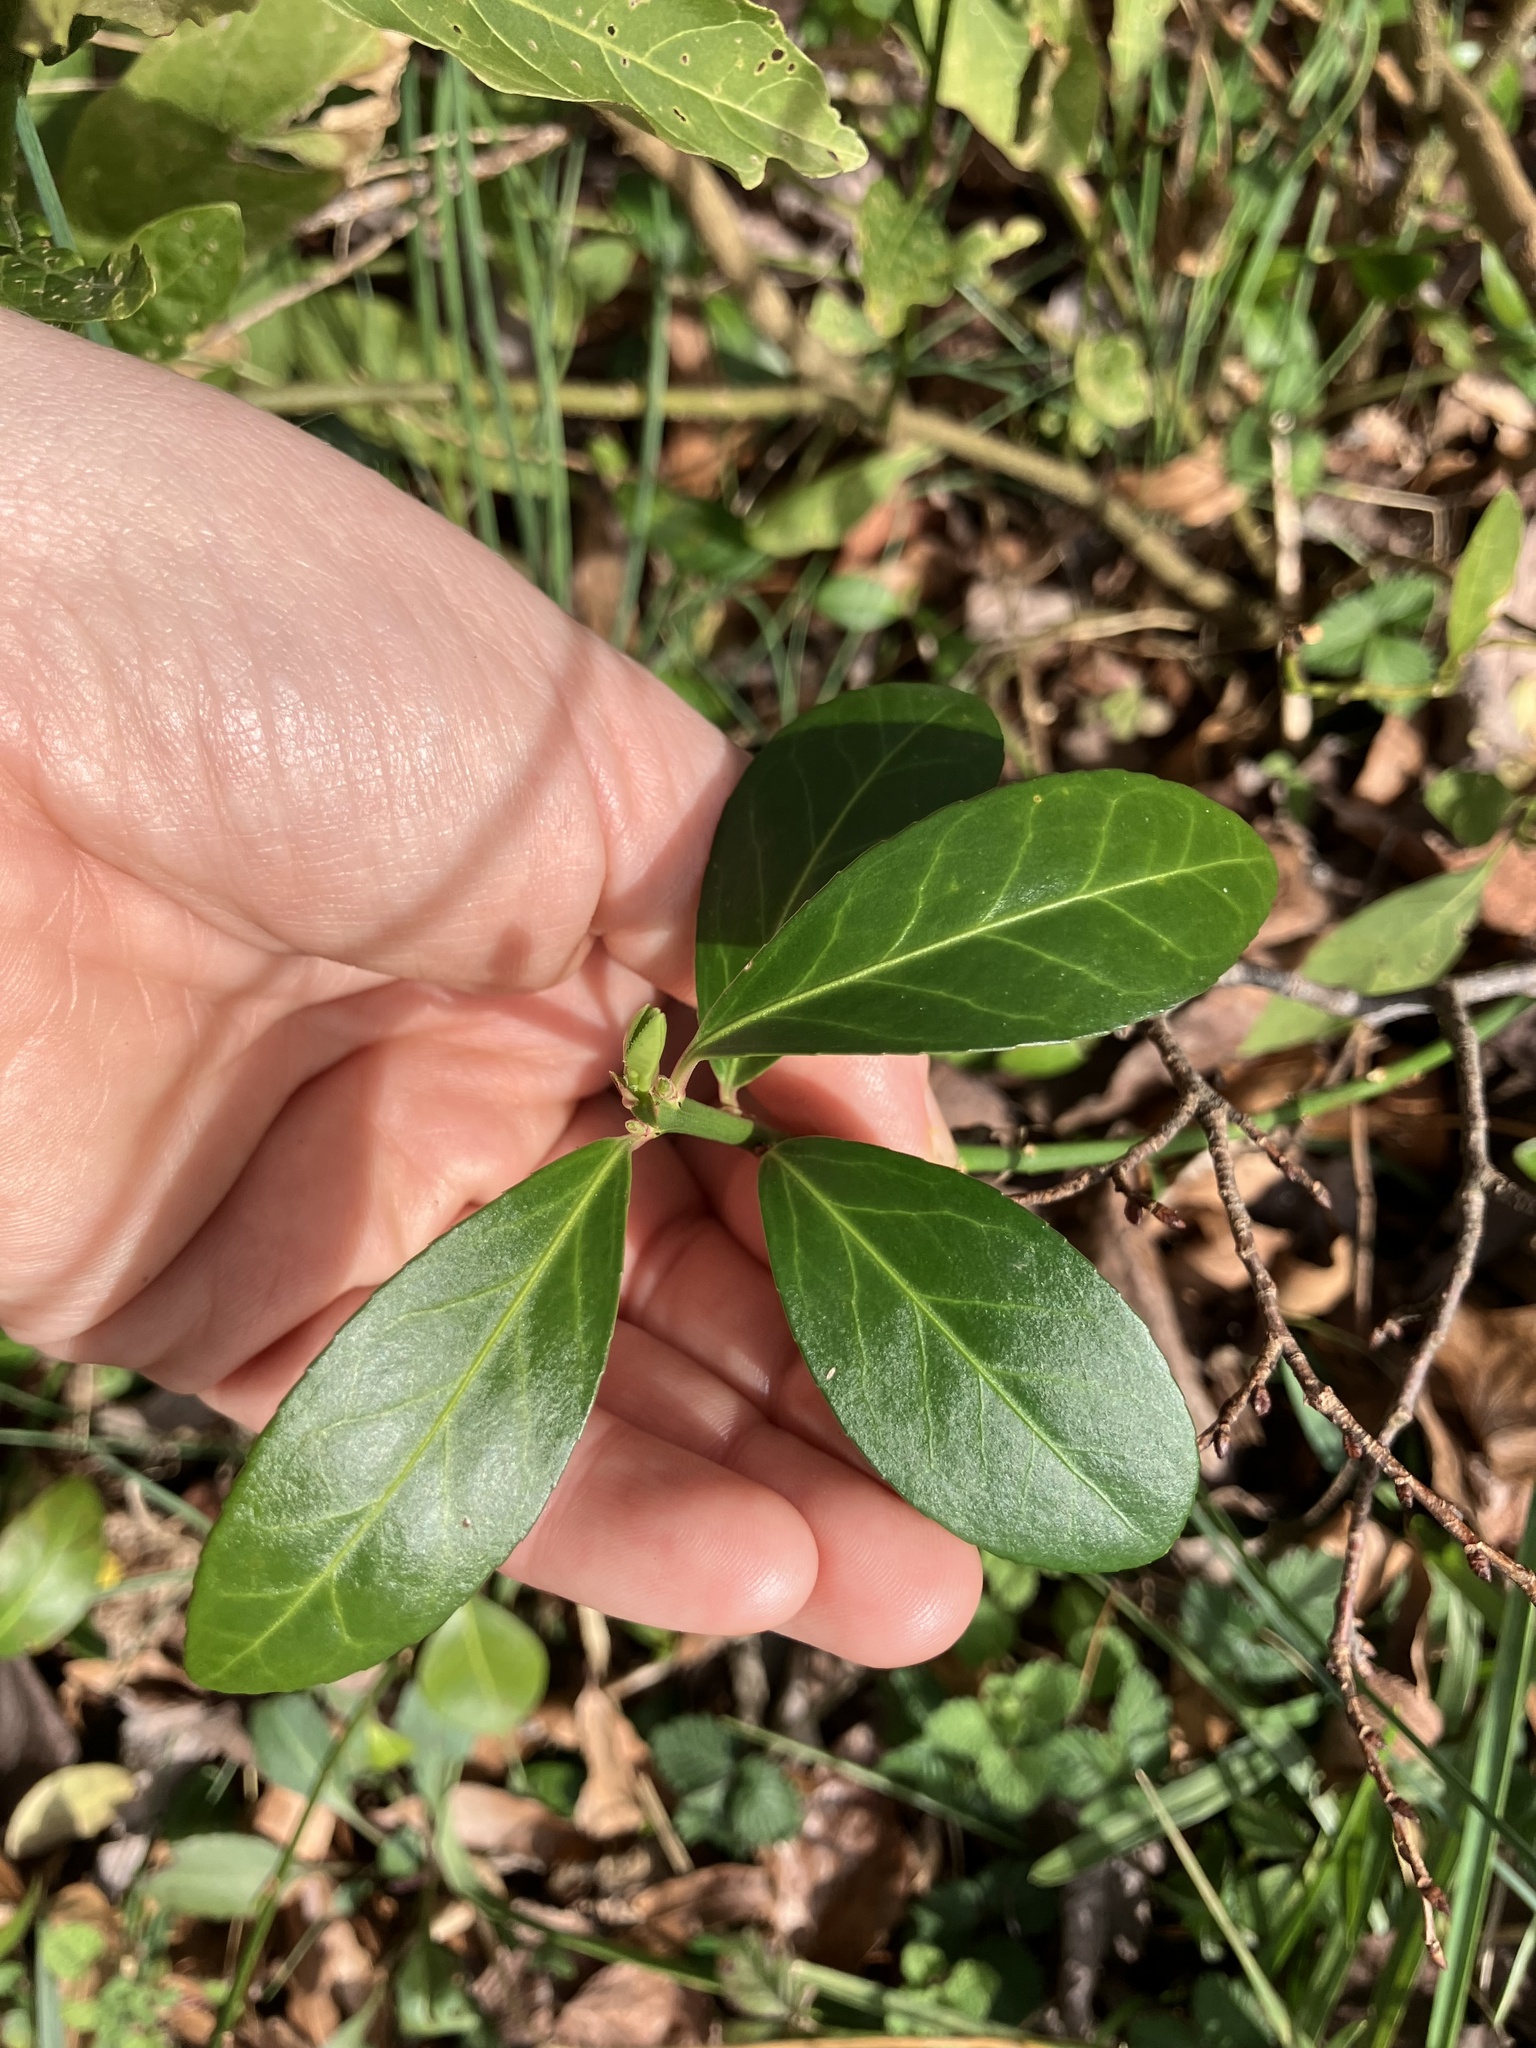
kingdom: Plantae
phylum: Tracheophyta
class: Magnoliopsida
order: Gentianales
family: Apocynaceae
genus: Vinca
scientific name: Vinca minor
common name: Lesser periwinkle
